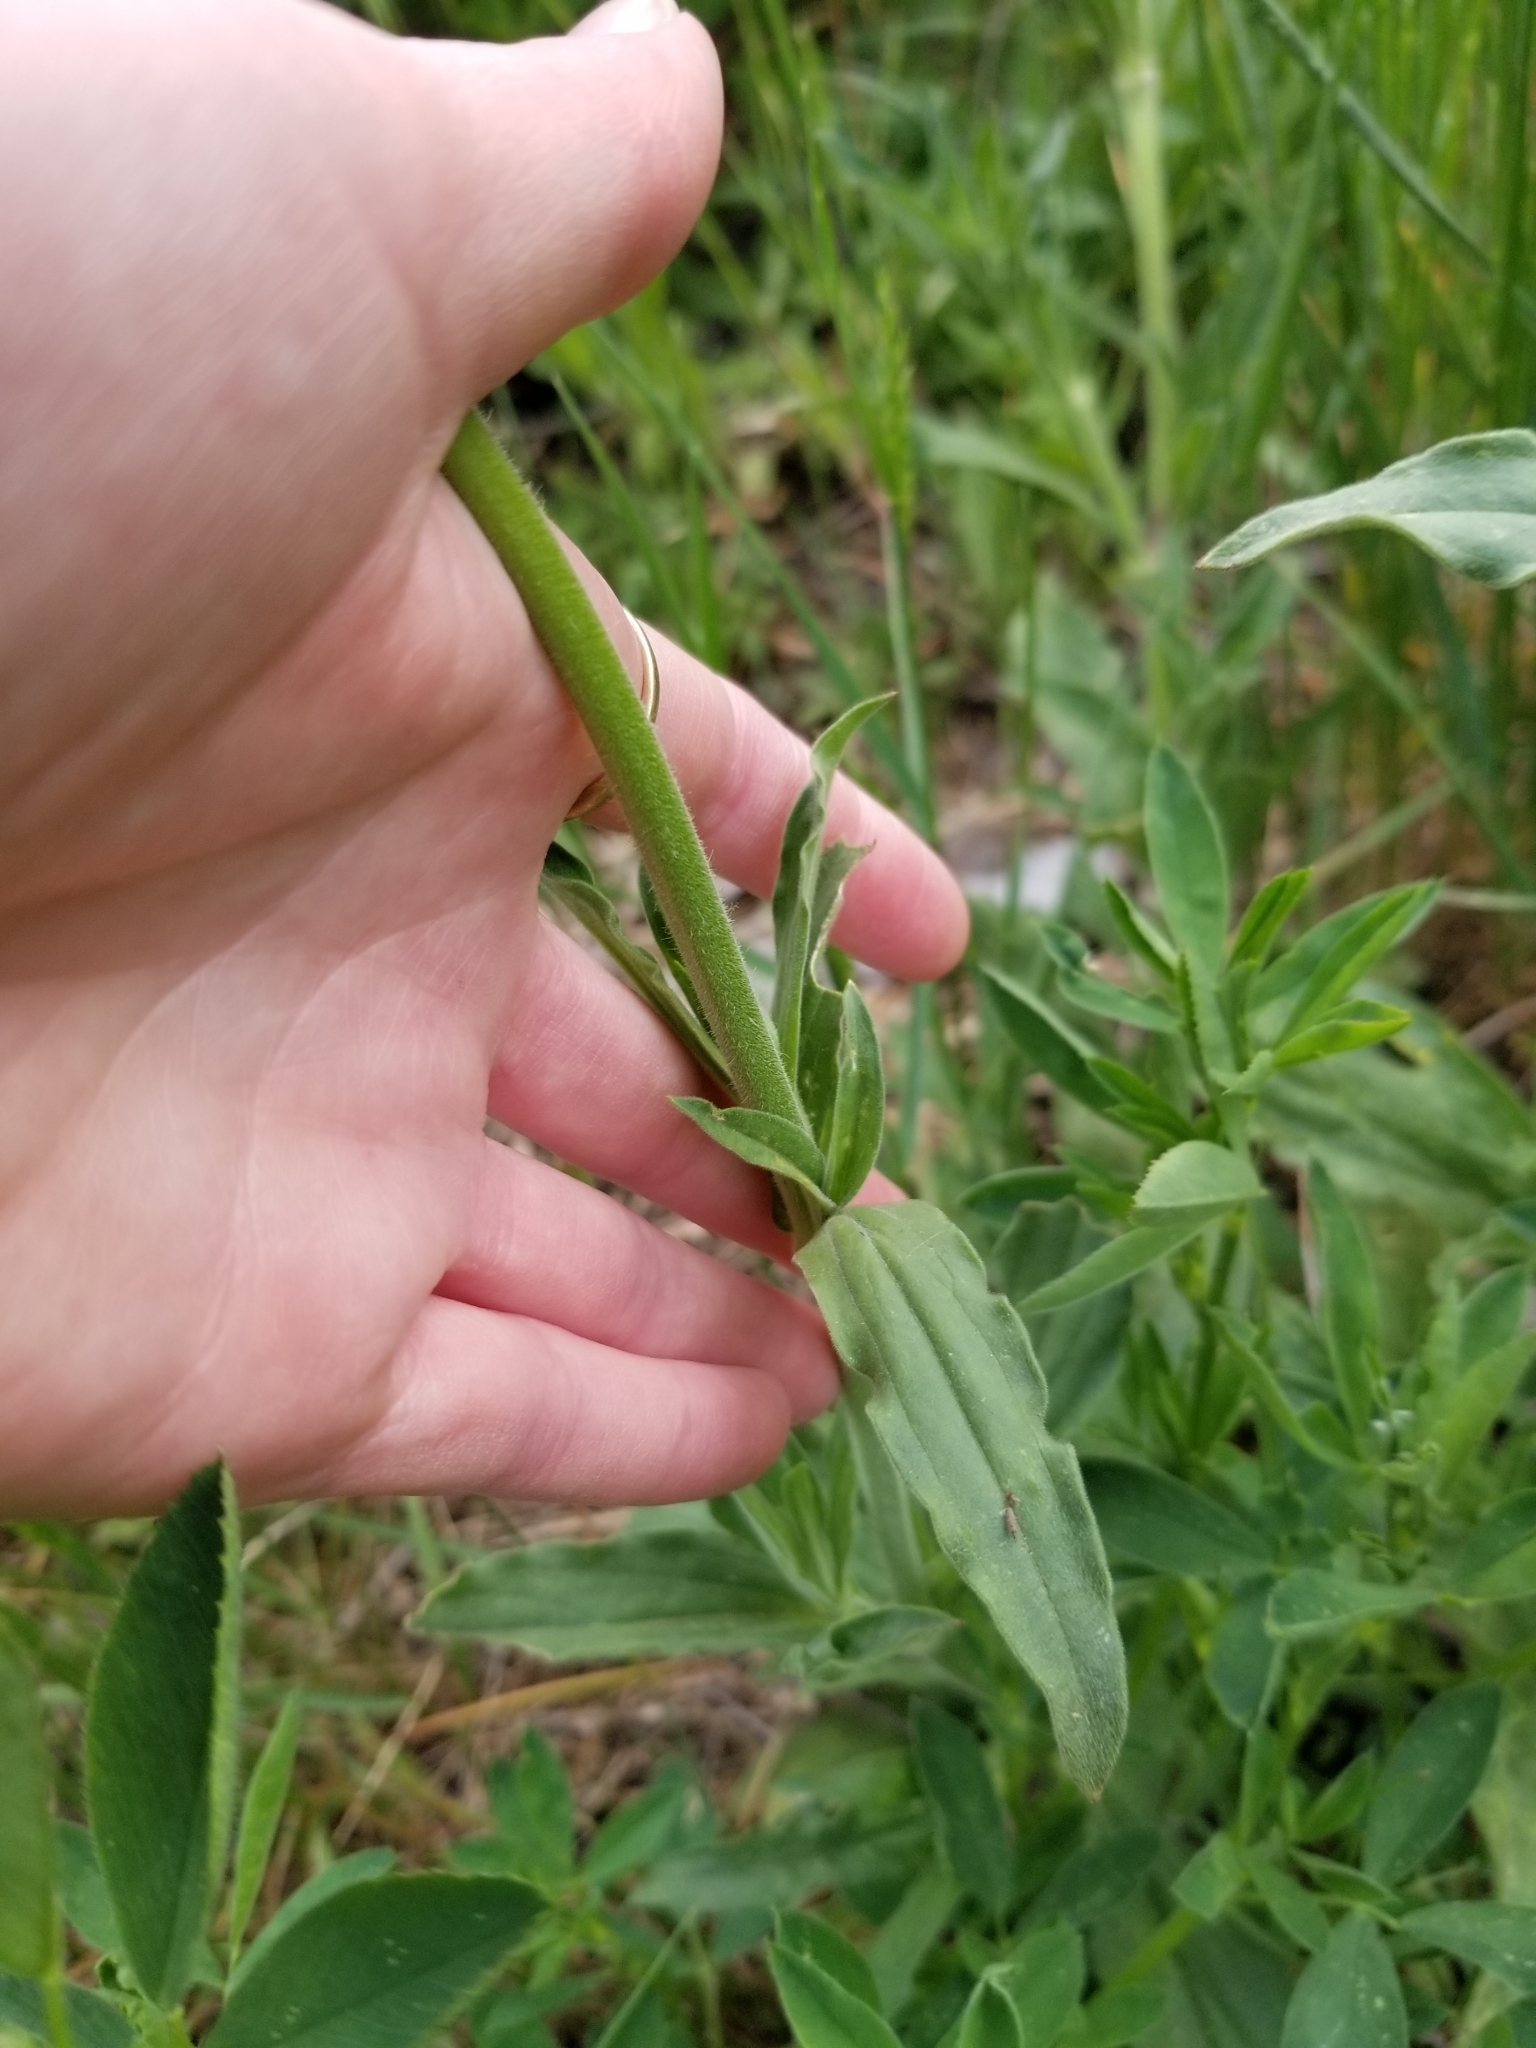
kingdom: Plantae
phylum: Tracheophyta
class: Magnoliopsida
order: Caryophyllales
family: Caryophyllaceae
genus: Silene
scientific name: Silene latifolia
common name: White campion
